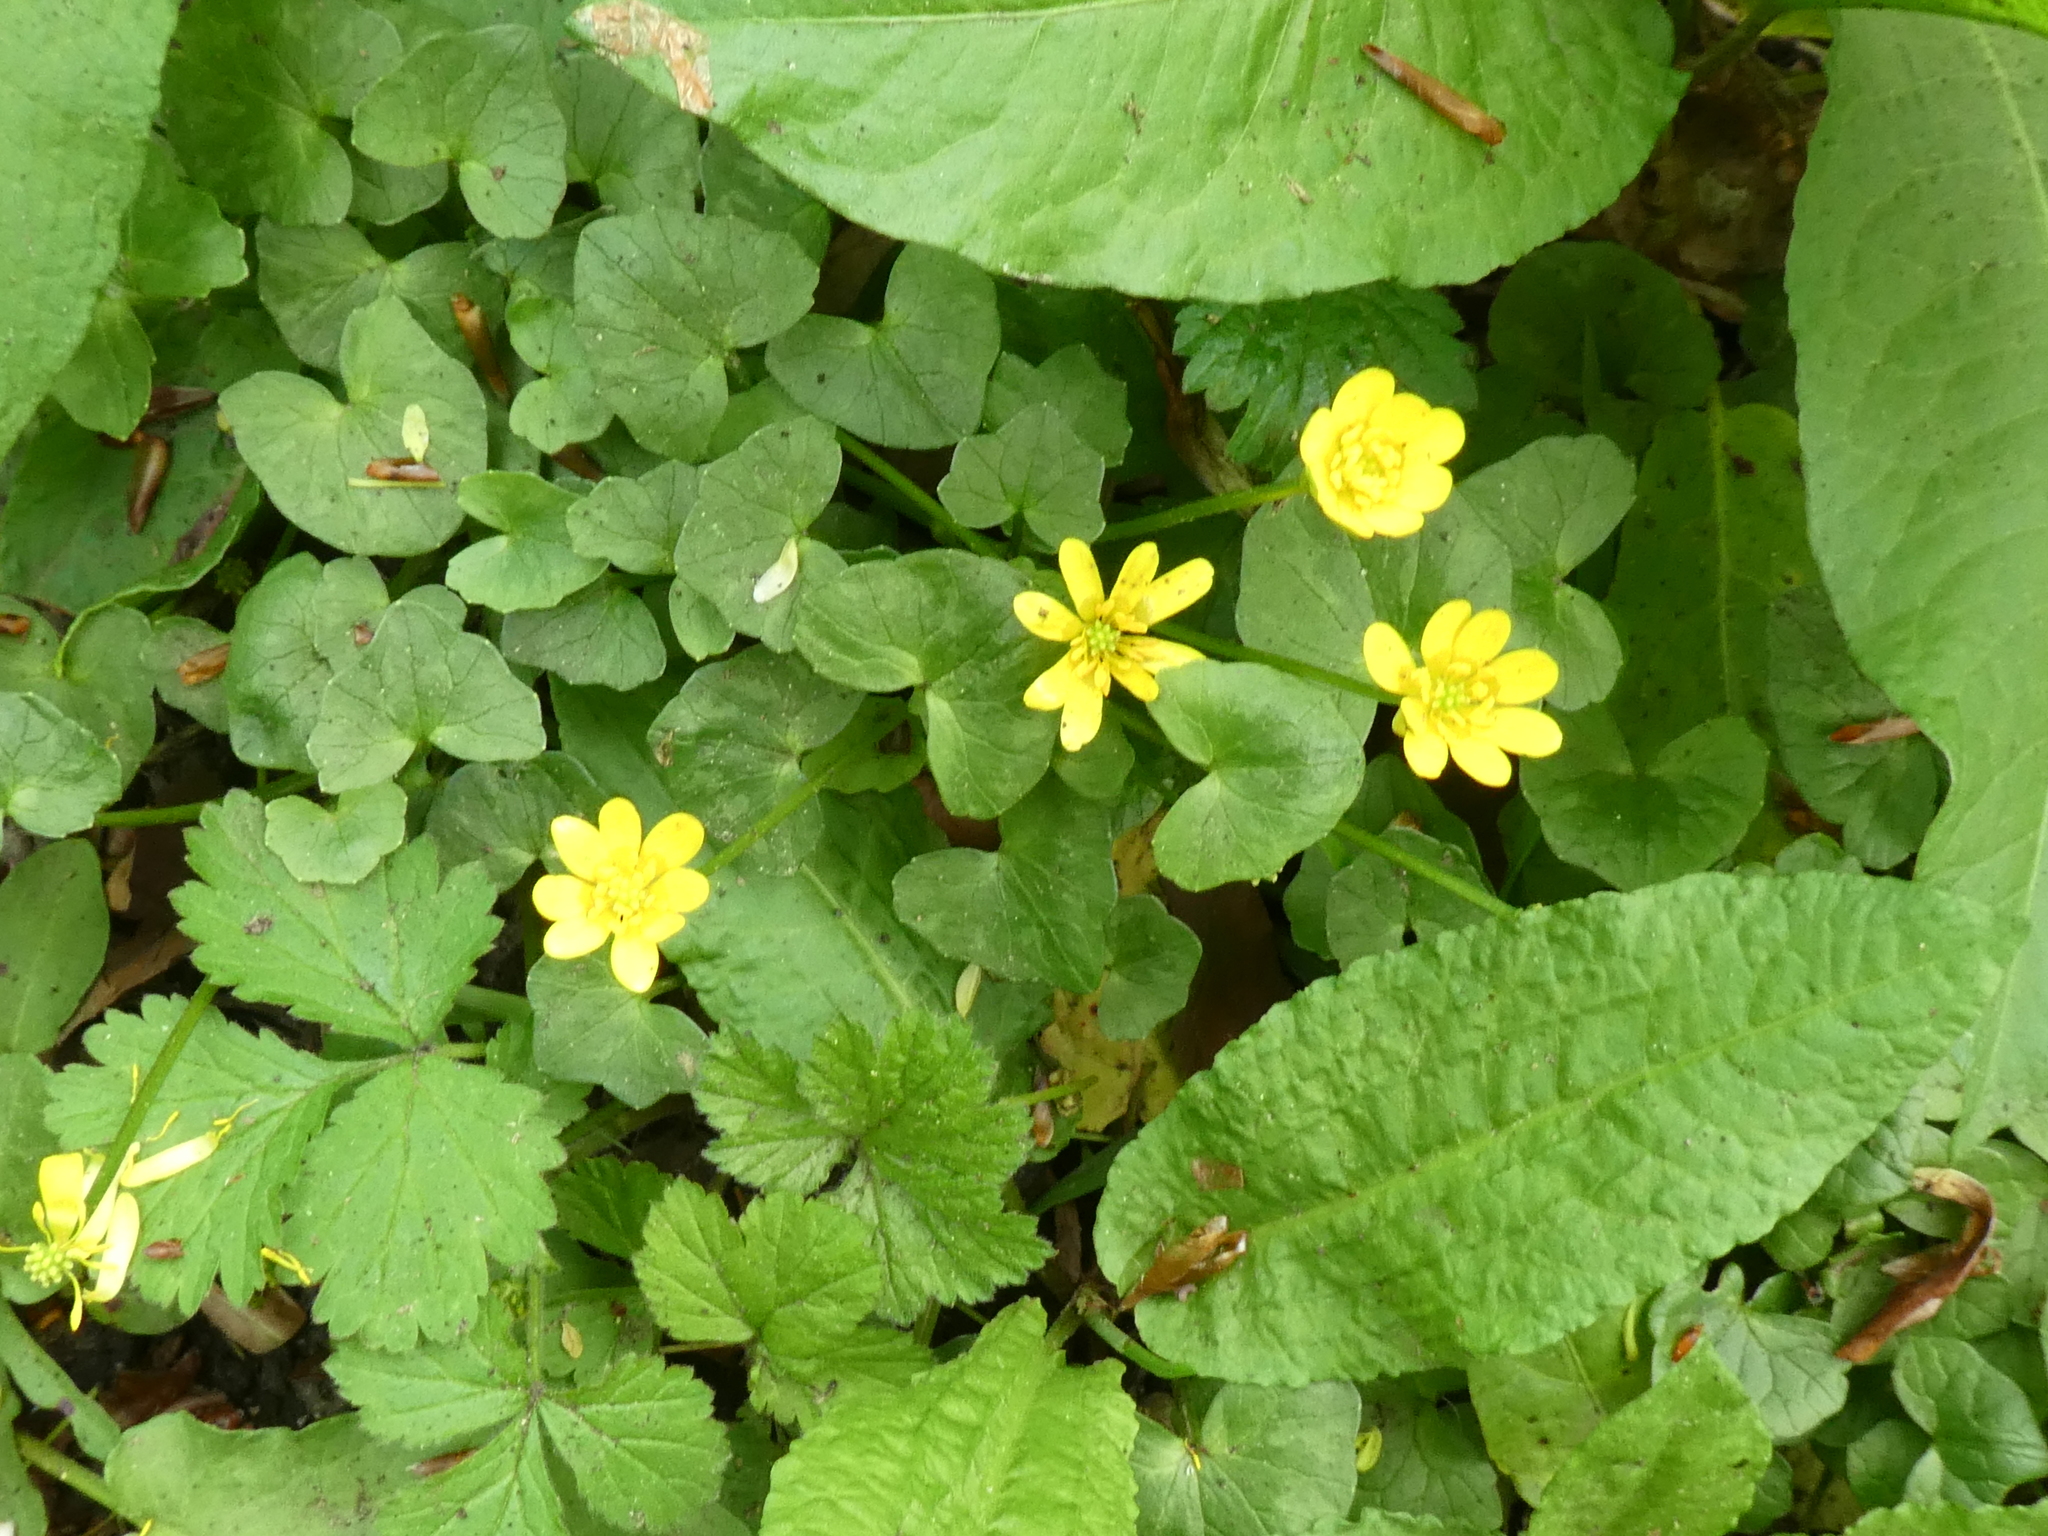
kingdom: Plantae
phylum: Tracheophyta
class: Magnoliopsida
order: Ranunculales
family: Ranunculaceae
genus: Ficaria
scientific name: Ficaria verna
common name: Lesser celandine
